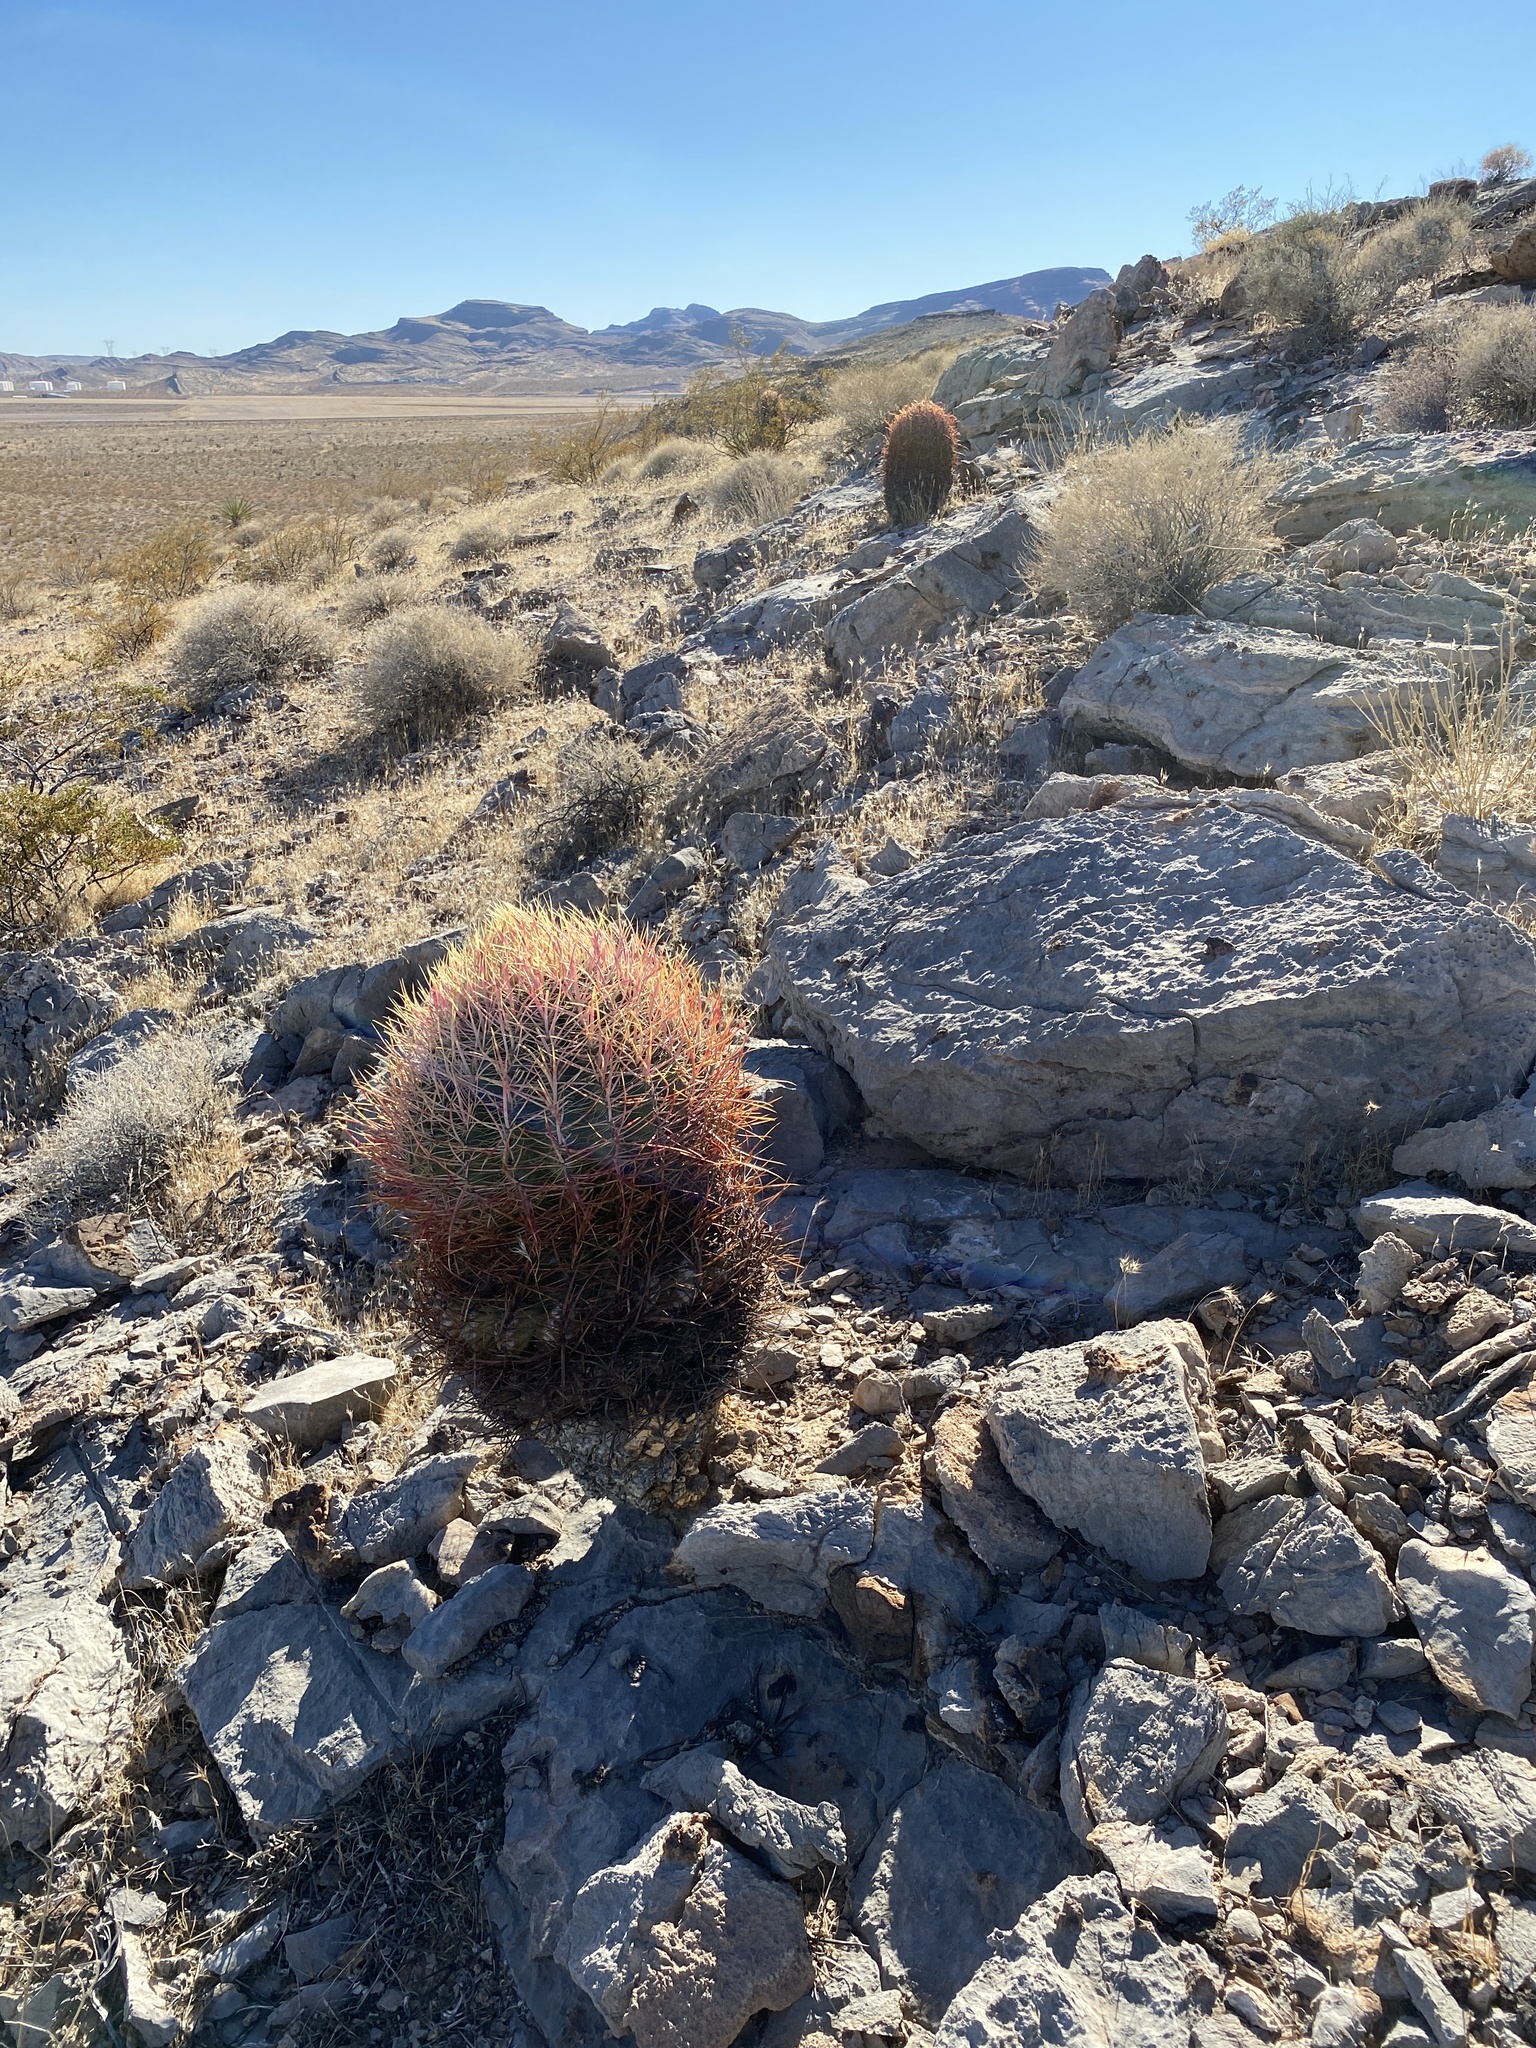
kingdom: Plantae
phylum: Tracheophyta
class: Magnoliopsida
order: Caryophyllales
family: Cactaceae
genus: Ferocactus
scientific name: Ferocactus cylindraceus
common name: California barrel cactus
